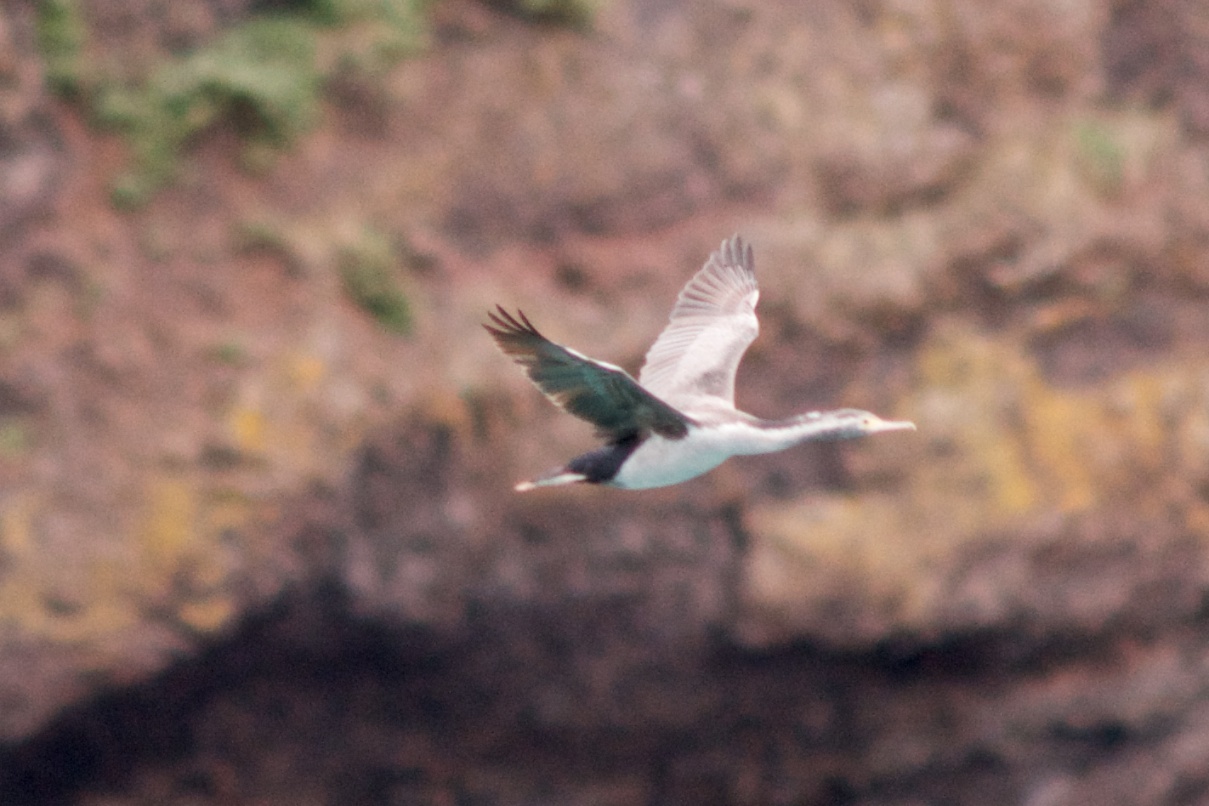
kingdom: Animalia
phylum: Chordata
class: Aves
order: Suliformes
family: Phalacrocoracidae
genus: Phalacrocorax
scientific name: Phalacrocorax punctatus
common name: Spotted shag
